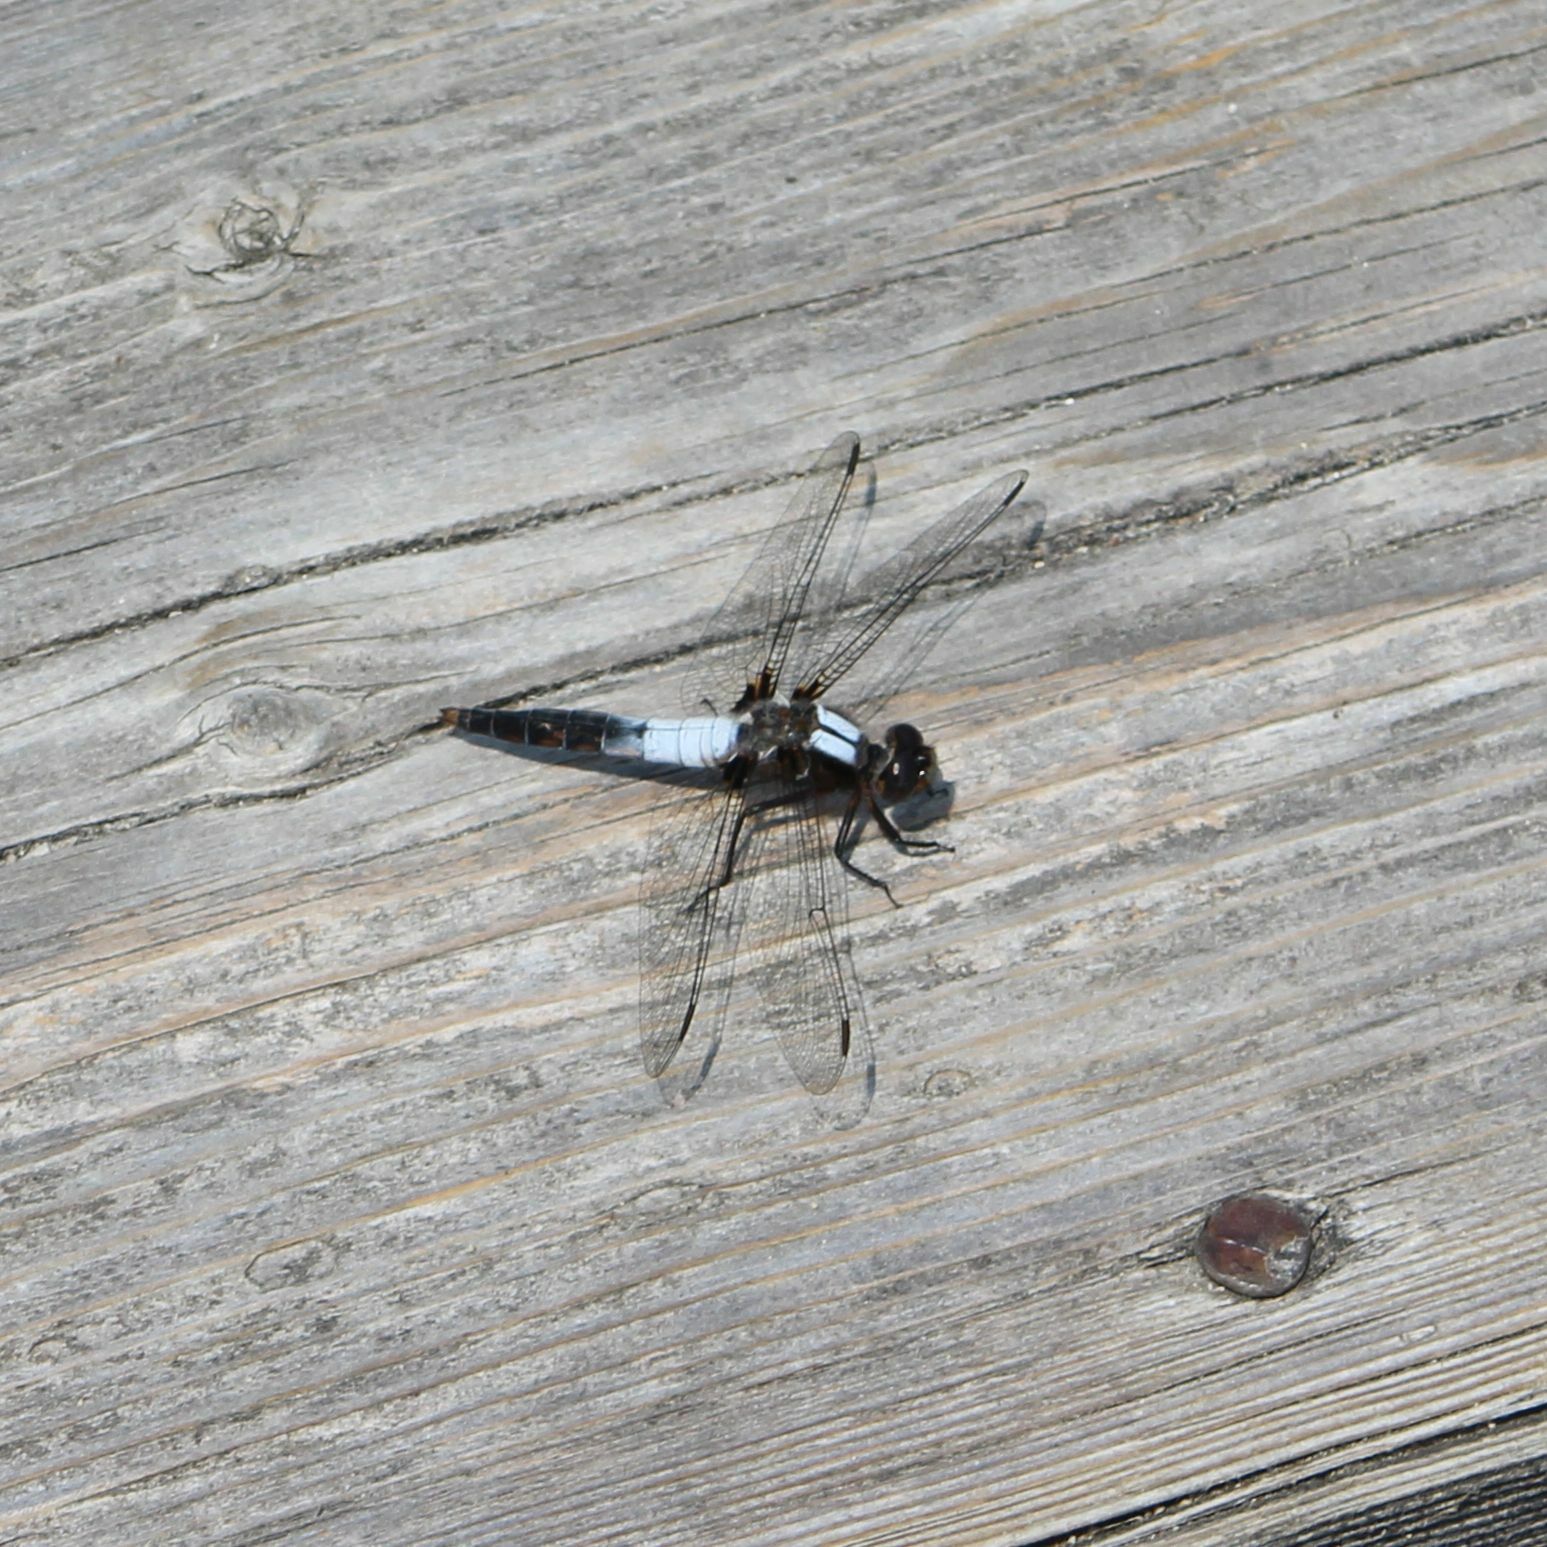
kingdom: Animalia
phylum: Arthropoda
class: Insecta
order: Odonata
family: Libellulidae
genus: Ladona
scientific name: Ladona julia
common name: Chalk-fronted corporal
